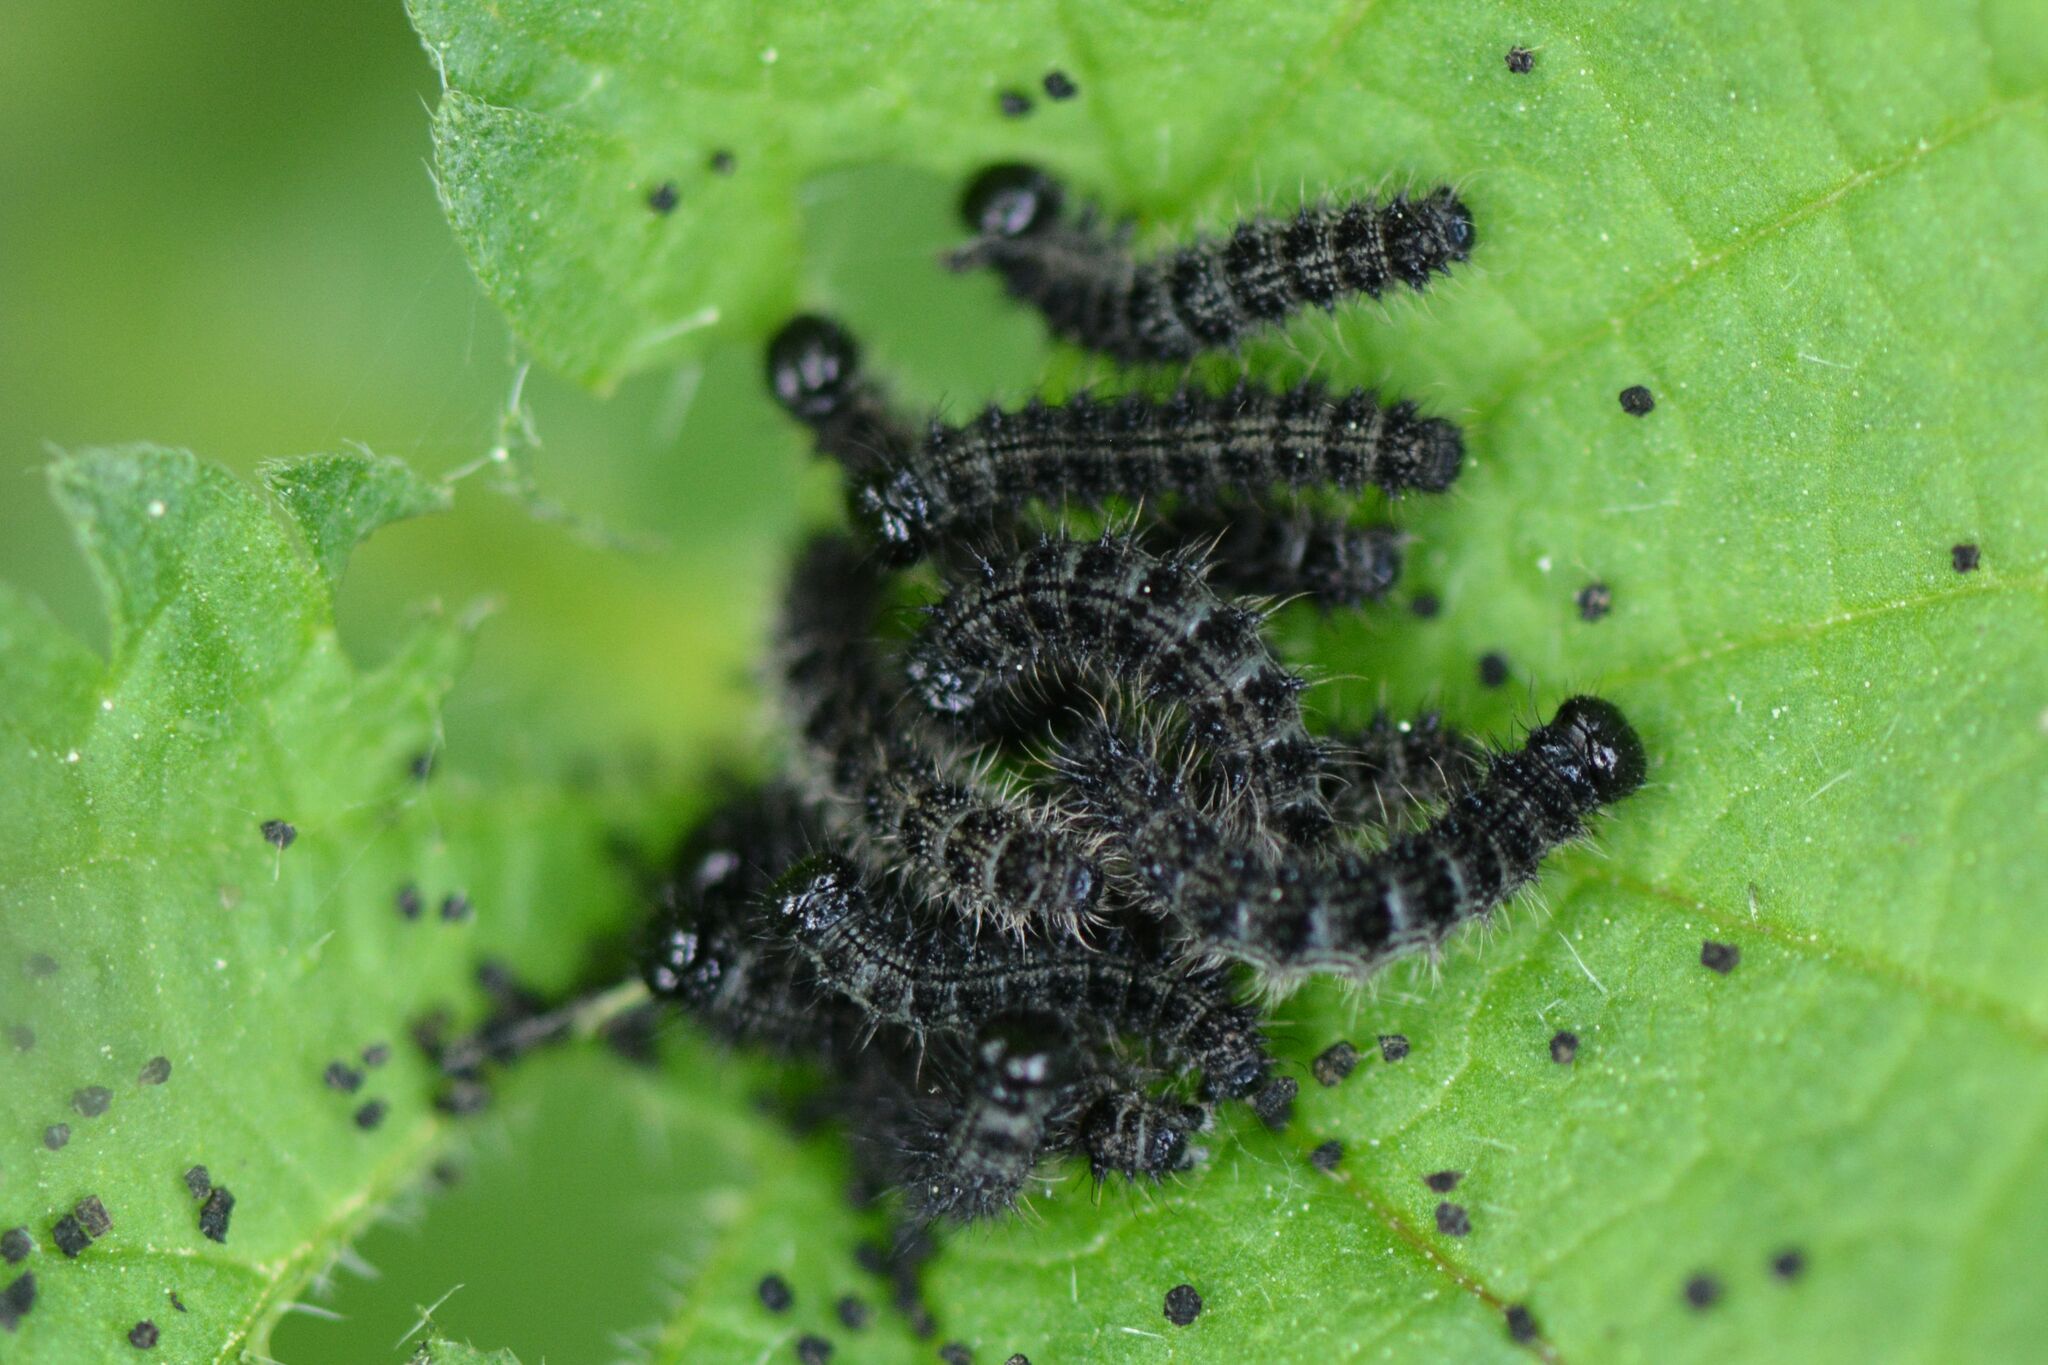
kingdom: Animalia
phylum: Arthropoda
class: Insecta
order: Lepidoptera
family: Nymphalidae
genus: Aglais
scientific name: Aglais urticae
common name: Small tortoiseshell
